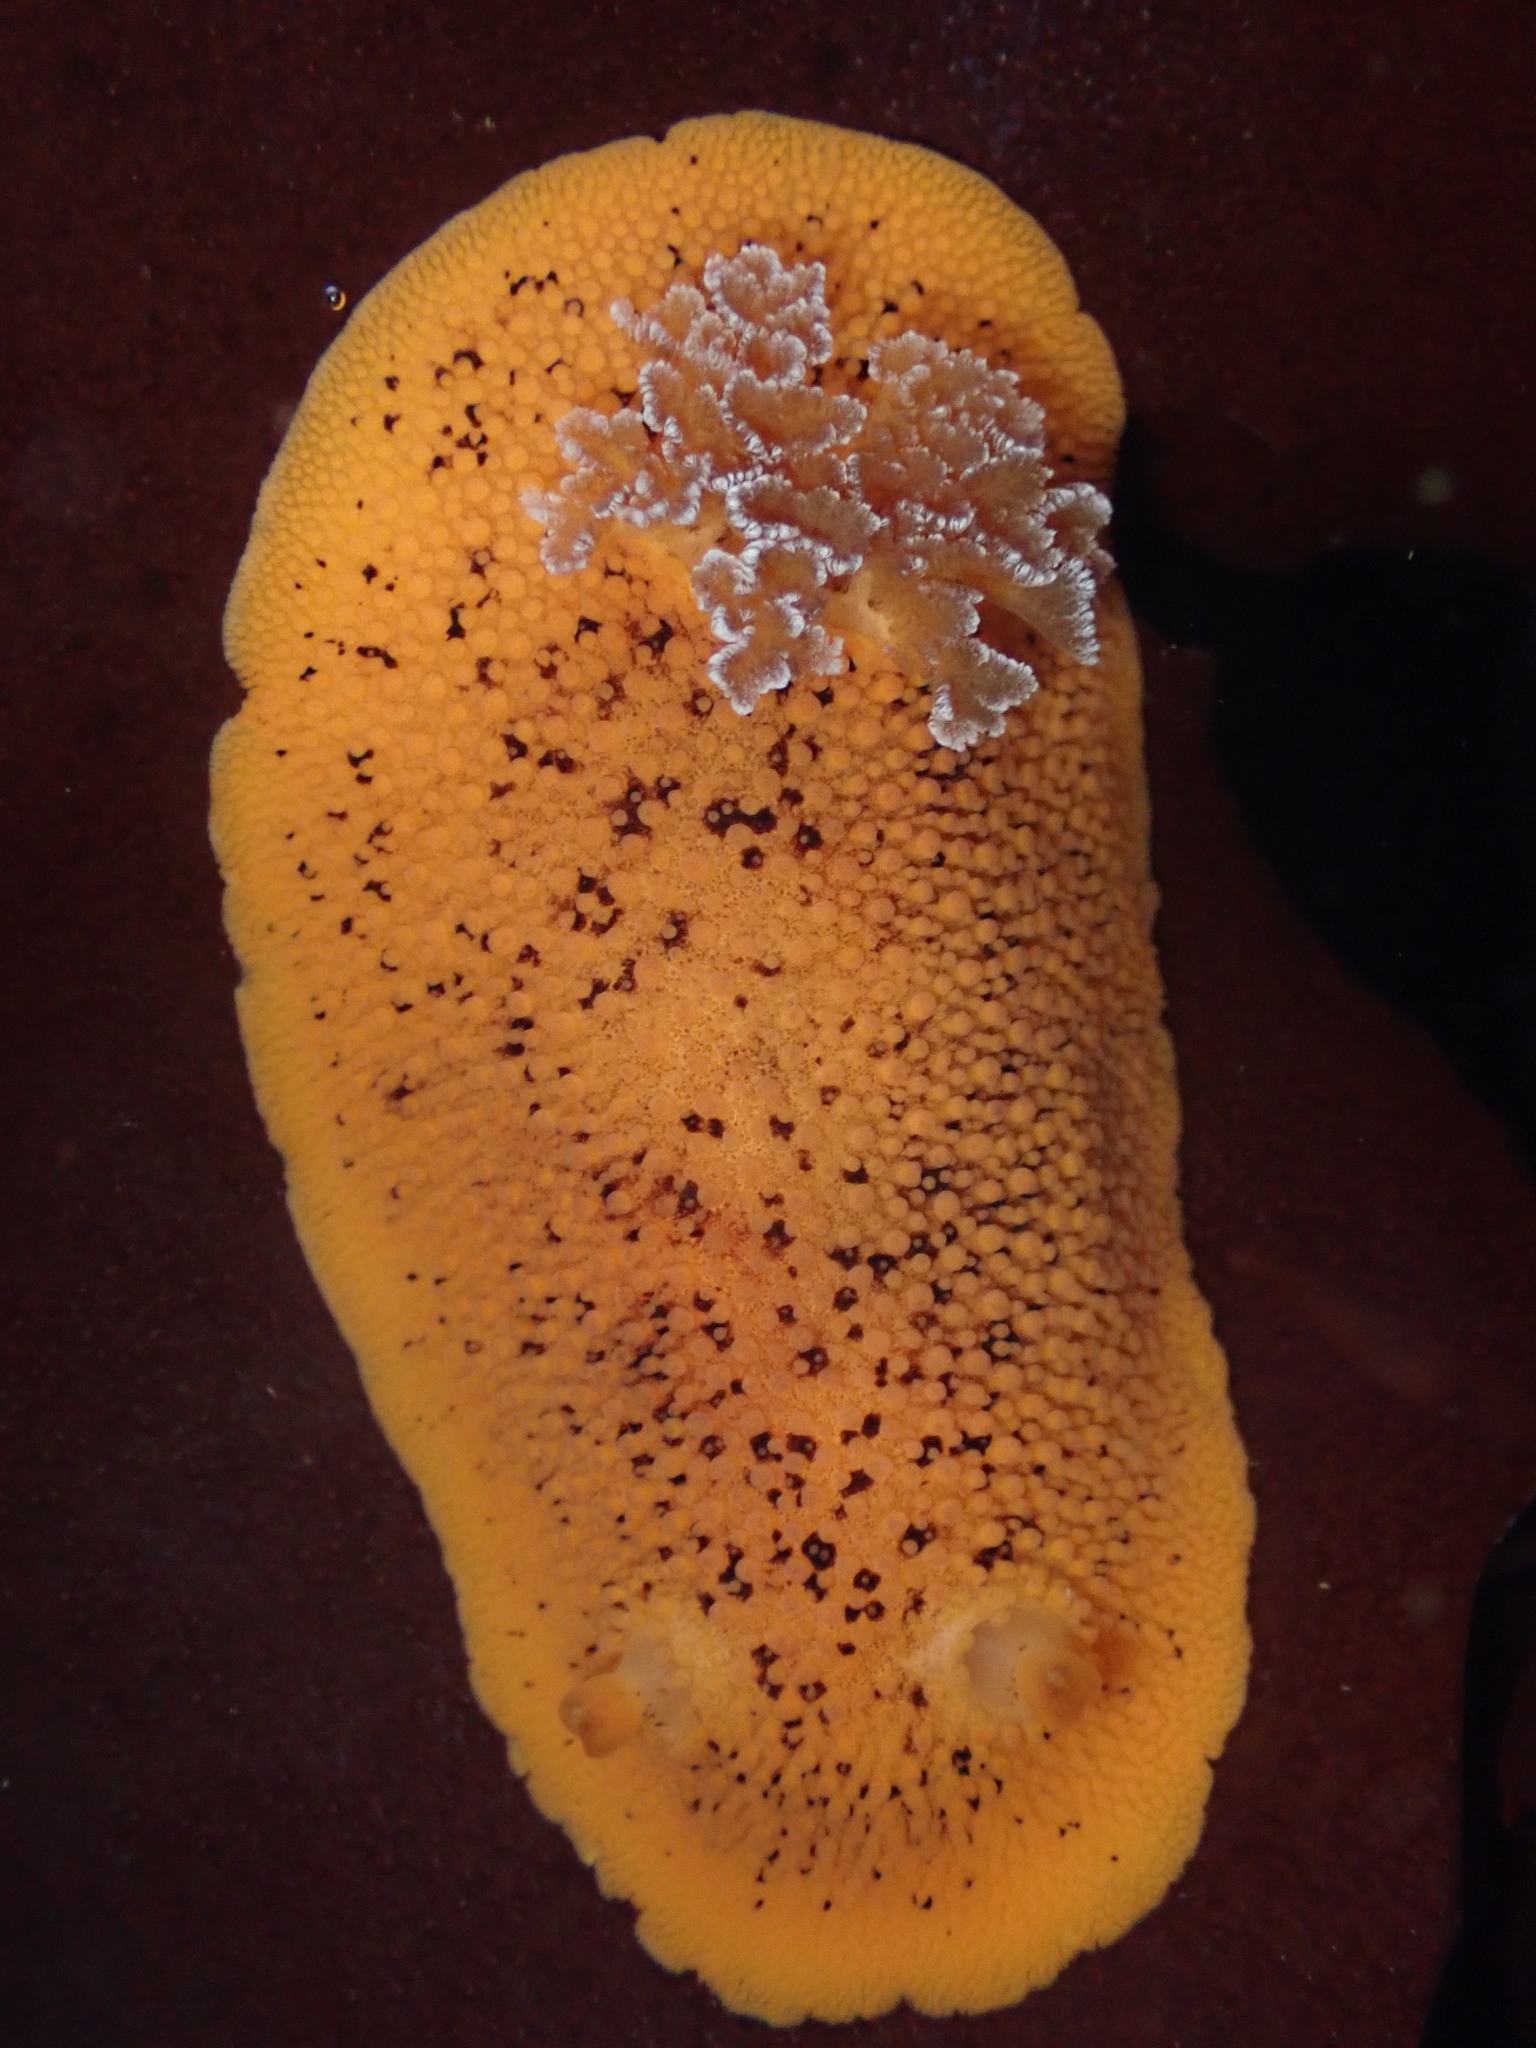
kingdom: Animalia
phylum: Mollusca
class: Gastropoda
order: Nudibranchia
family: Discodorididae
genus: Peltodoris
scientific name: Peltodoris nobilis
